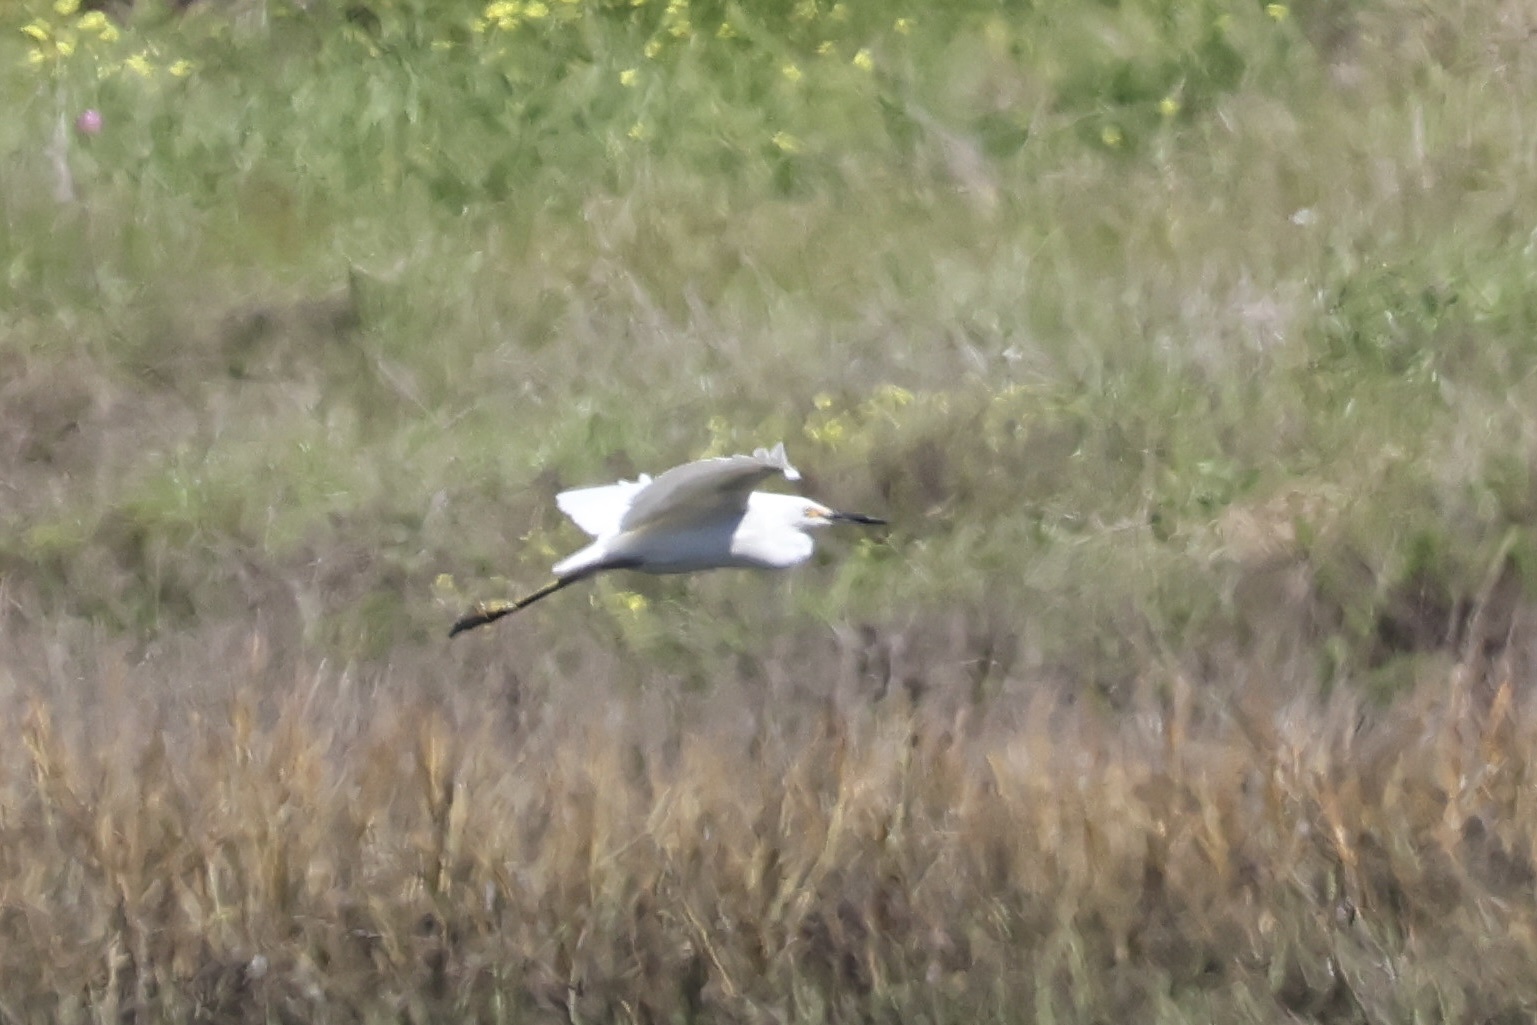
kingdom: Animalia
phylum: Chordata
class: Aves
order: Pelecaniformes
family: Ardeidae
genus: Egretta
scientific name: Egretta thula
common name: Snowy egret
